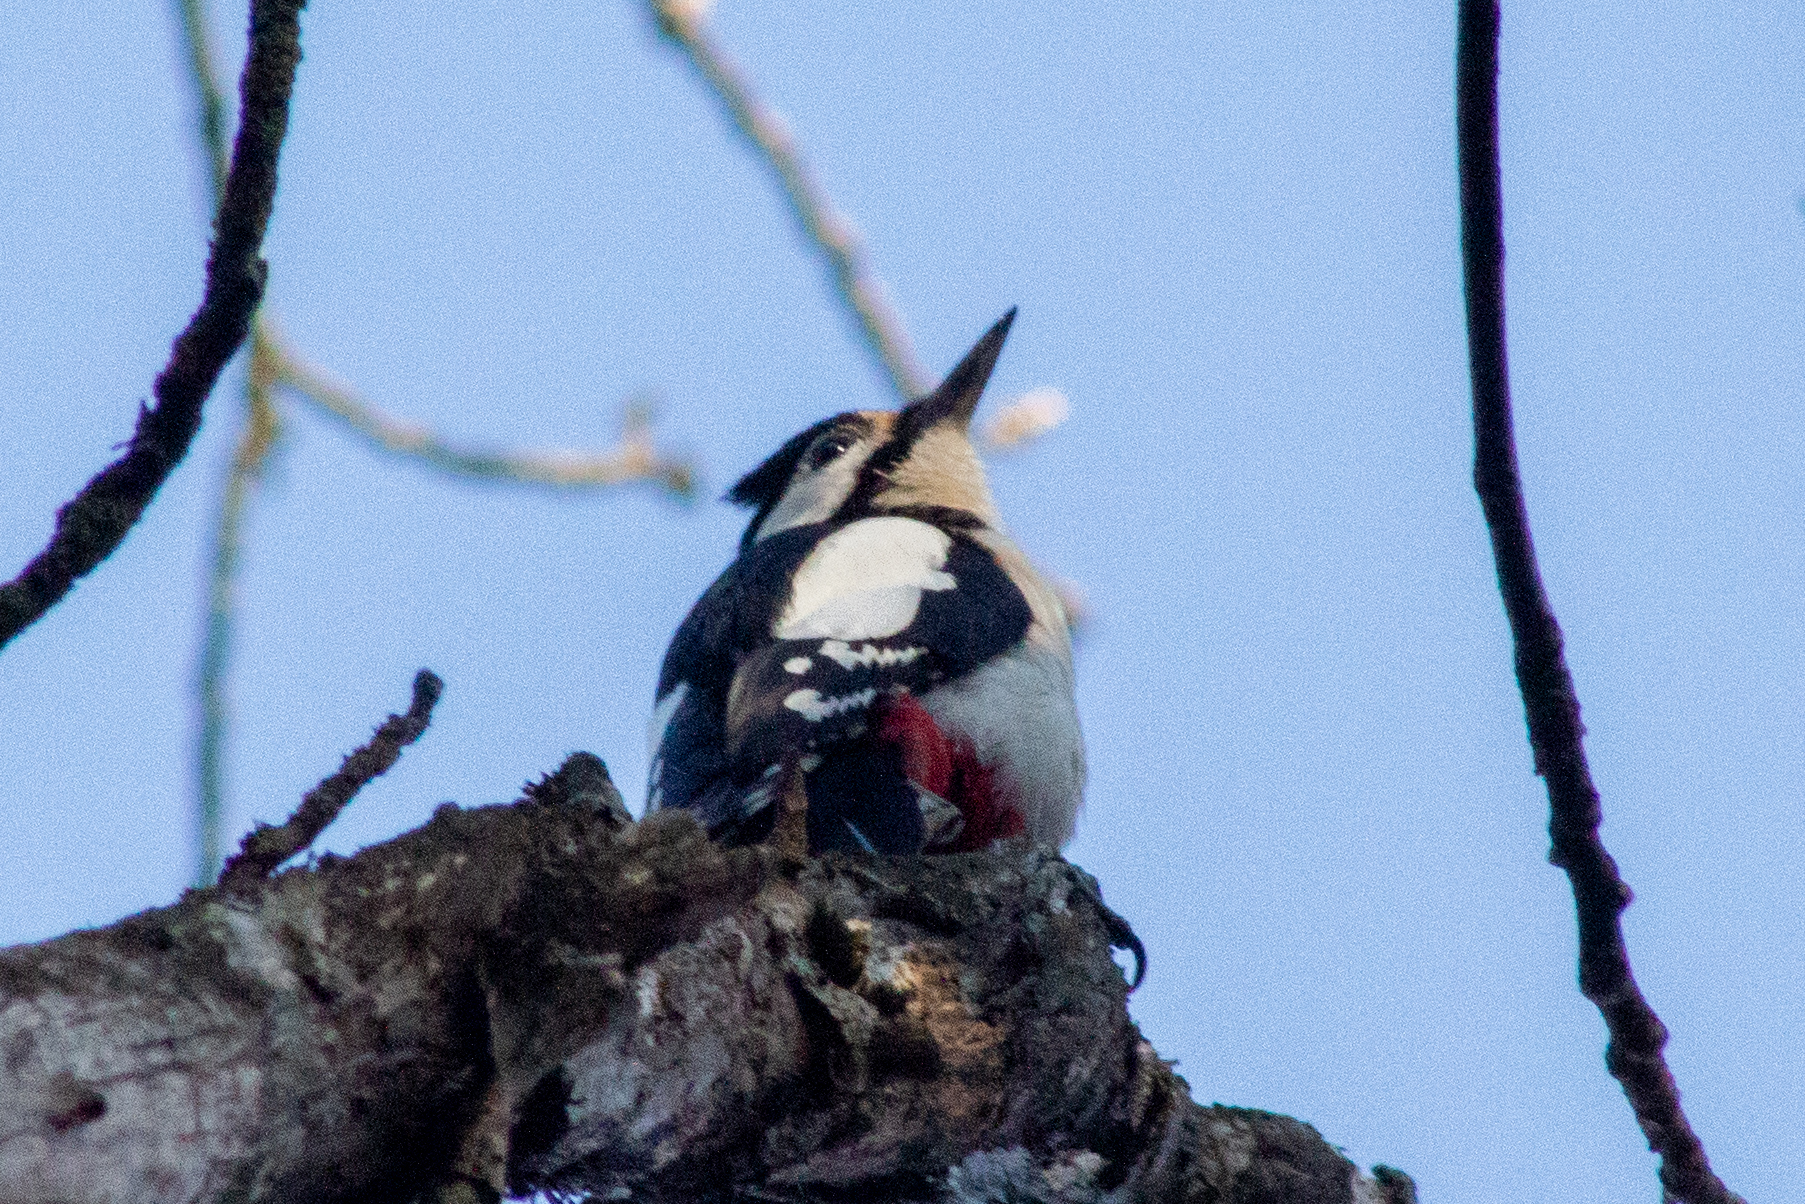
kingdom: Animalia
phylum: Chordata
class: Aves
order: Piciformes
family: Picidae
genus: Dendrocopos
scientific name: Dendrocopos major
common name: Great spotted woodpecker
